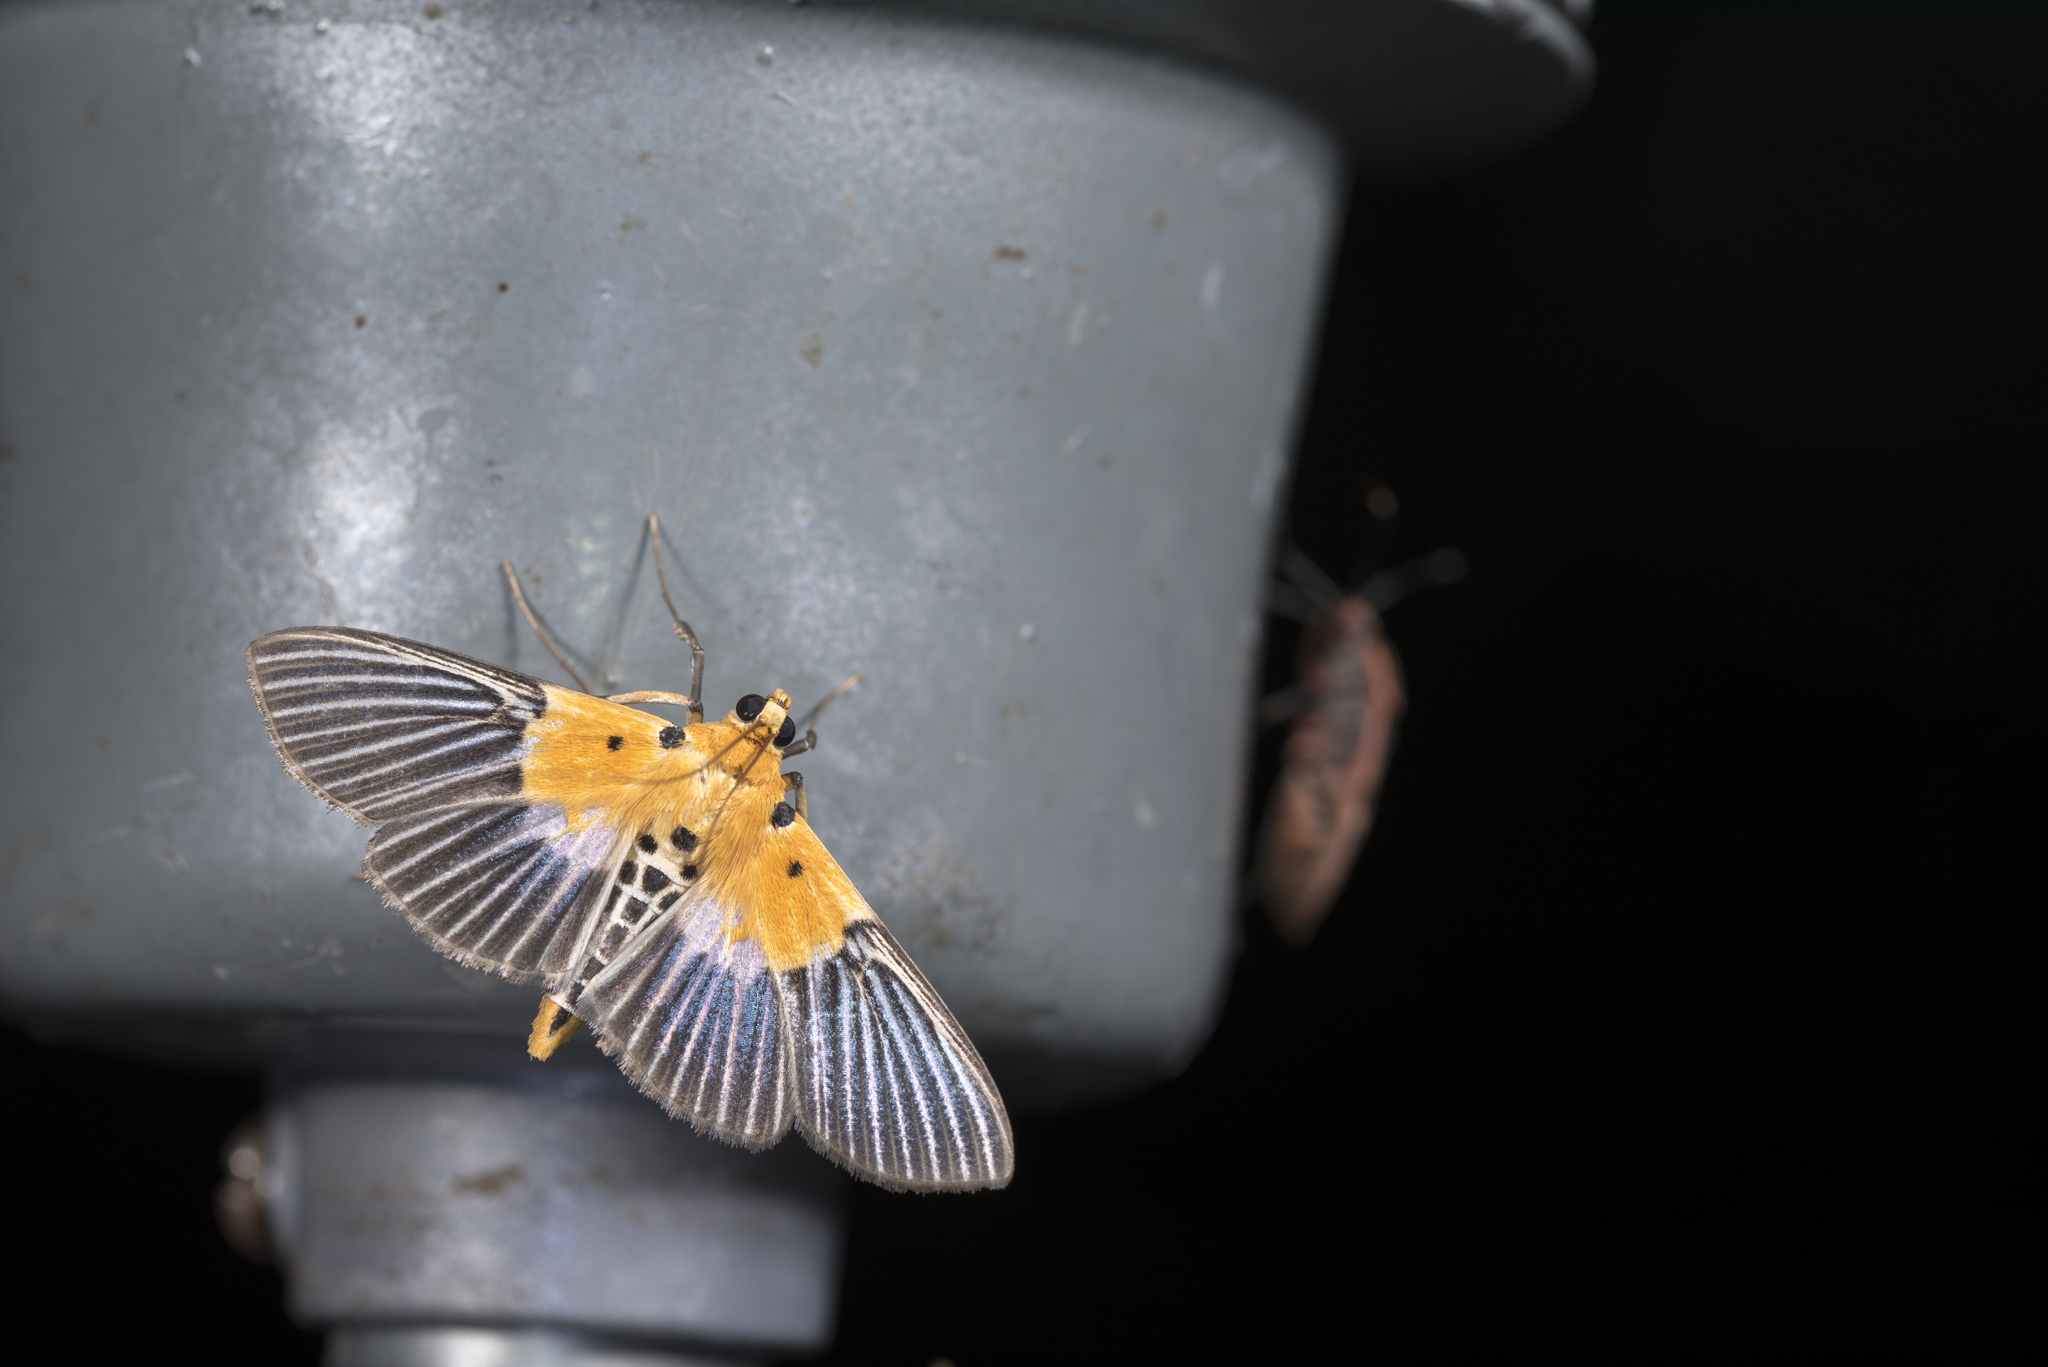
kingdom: Animalia
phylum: Arthropoda
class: Insecta
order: Lepidoptera
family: Crambidae
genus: Nevrina
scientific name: Nevrina procopia
